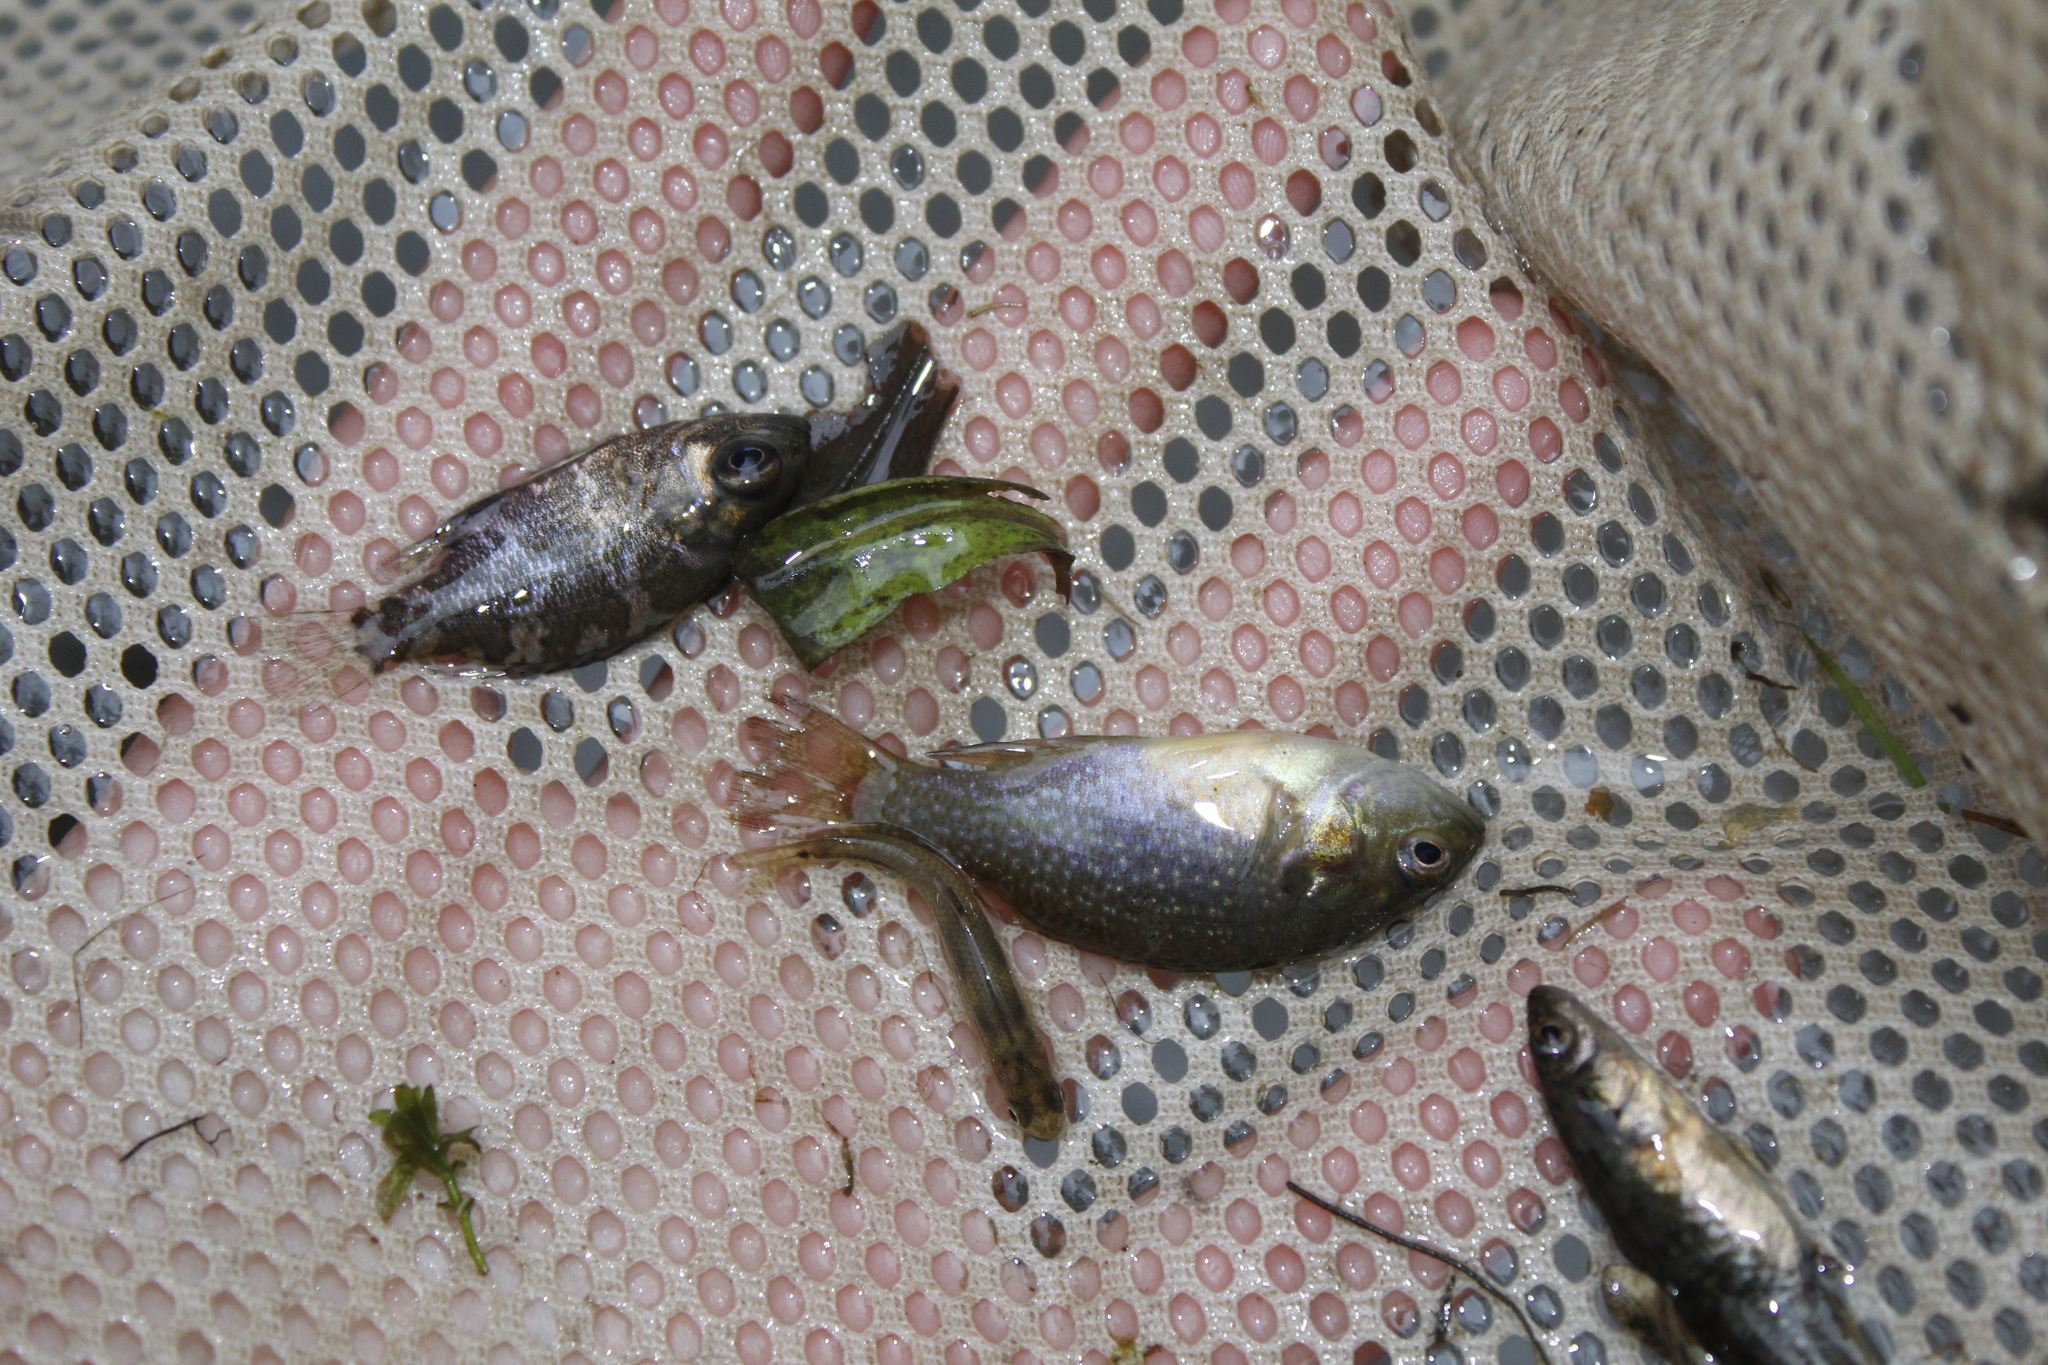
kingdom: Animalia
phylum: Chordata
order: Perciformes
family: Centrarchidae
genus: Lepomis
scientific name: Lepomis cyanellus
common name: Green sunfish
